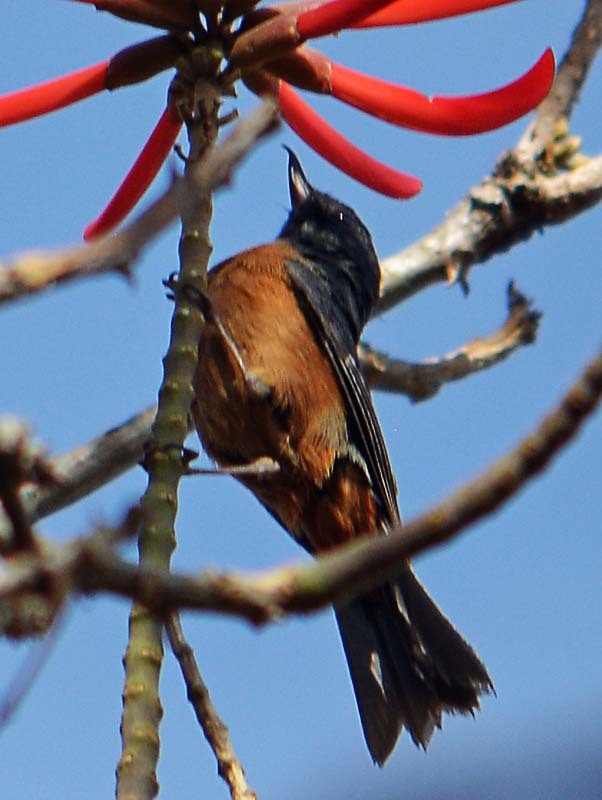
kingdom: Animalia
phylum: Chordata
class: Aves
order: Passeriformes
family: Thraupidae
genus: Diglossa
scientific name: Diglossa baritula
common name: Cinnamon-bellied flowerpiercer
